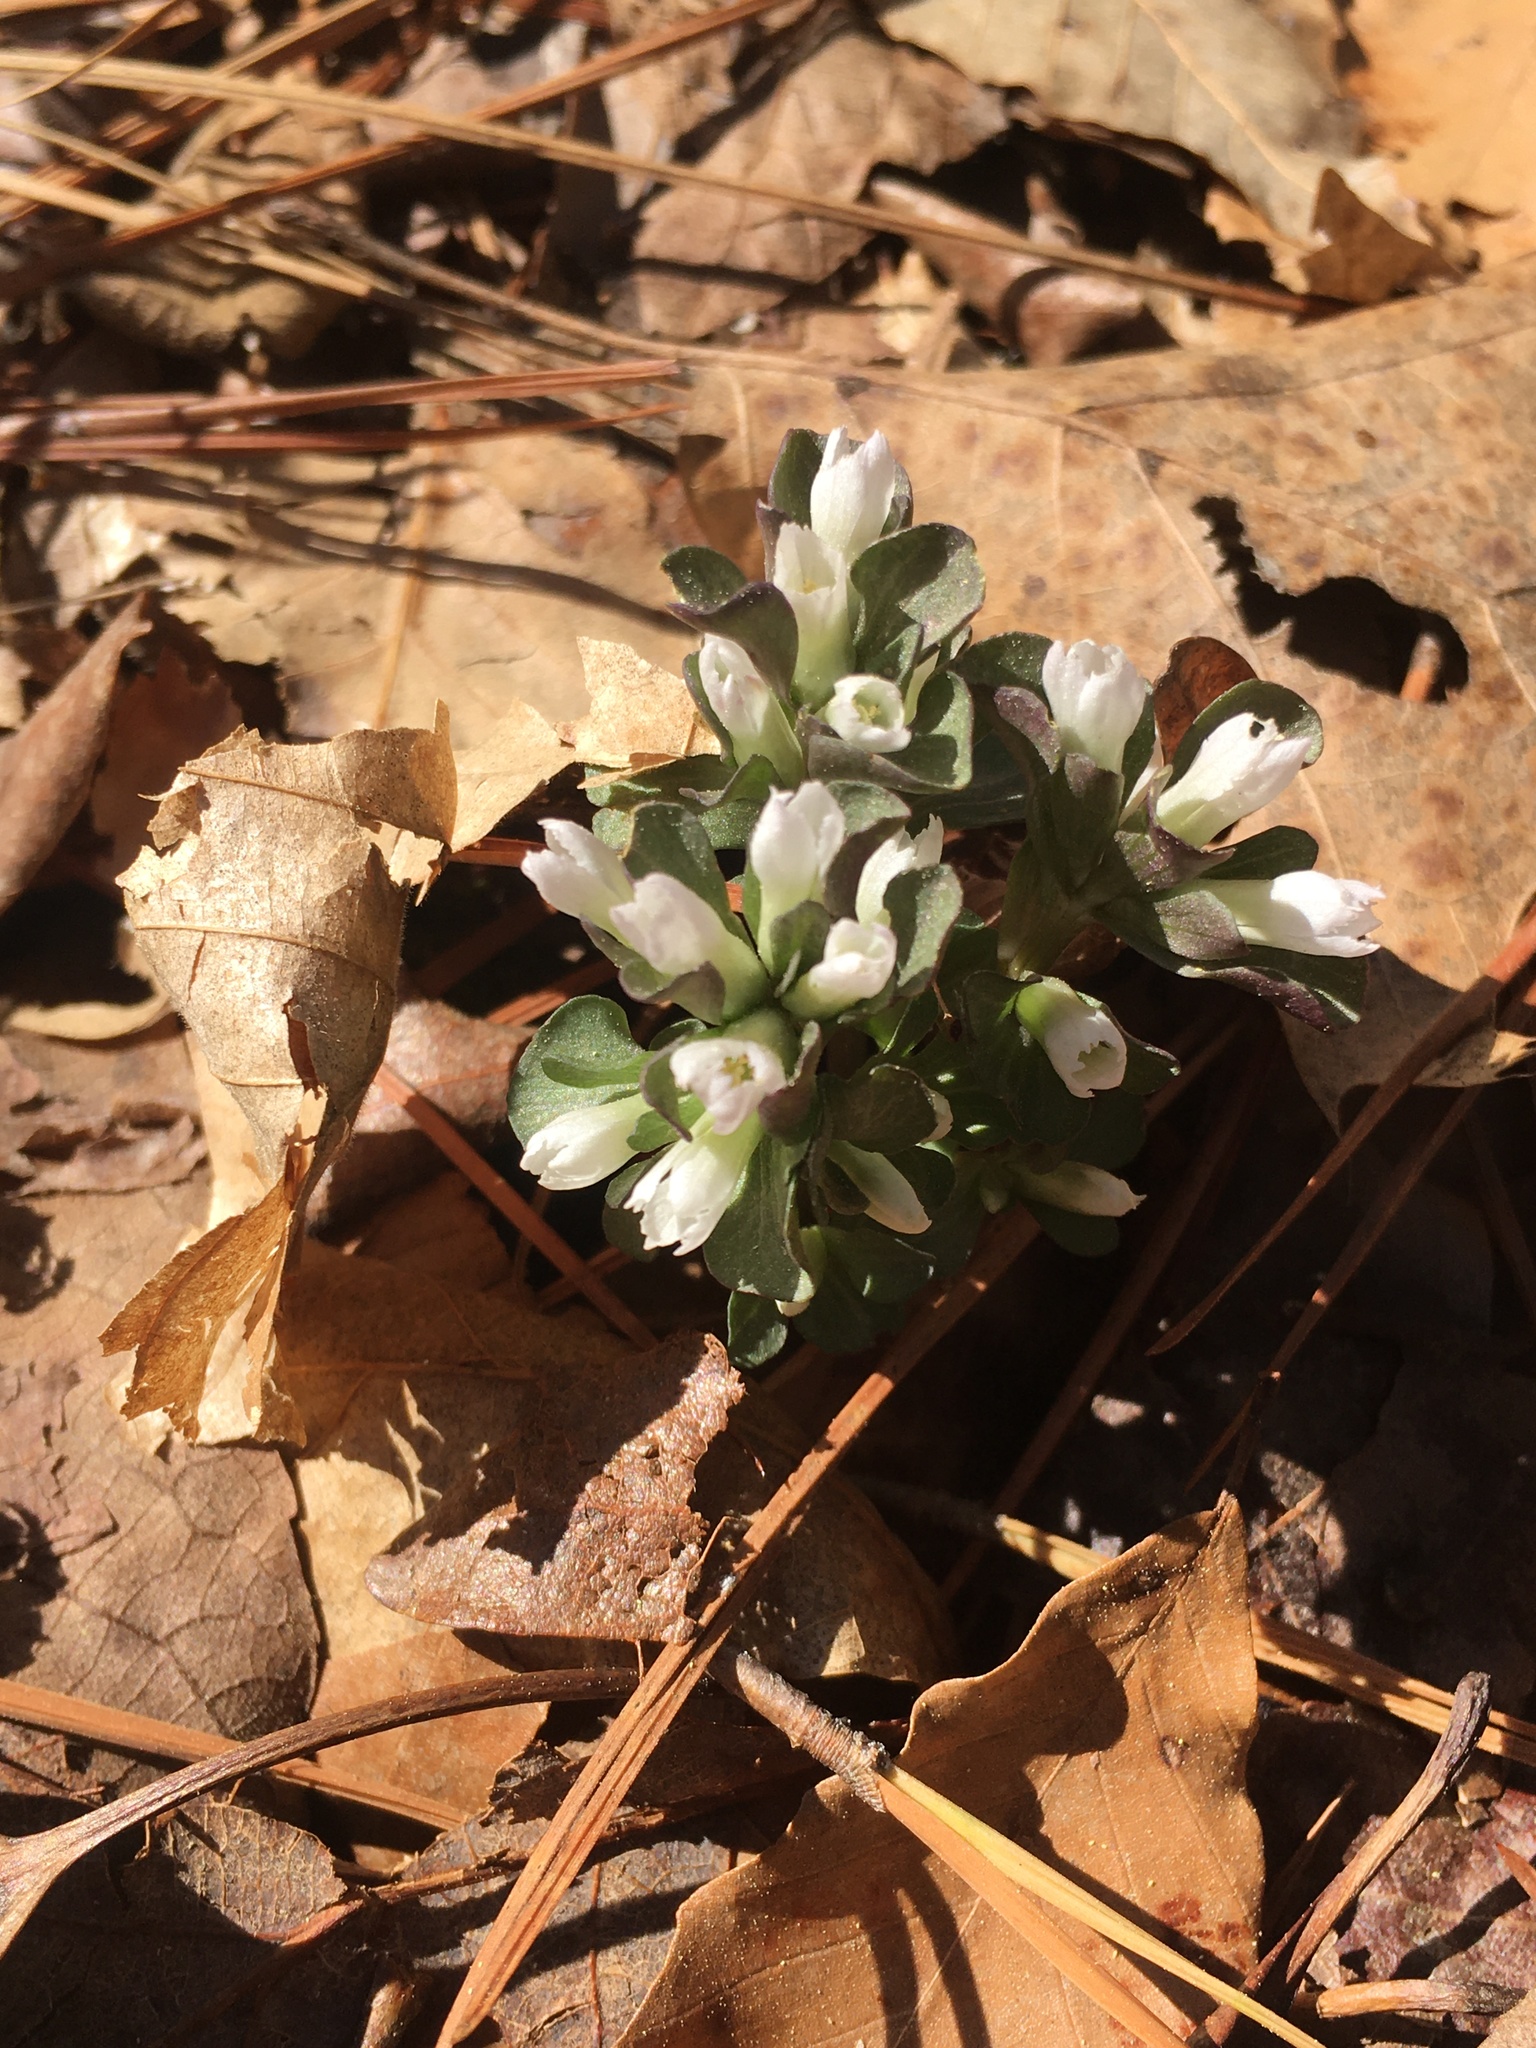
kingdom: Plantae
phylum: Tracheophyta
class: Magnoliopsida
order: Gentianales
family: Gentianaceae
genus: Obolaria
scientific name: Obolaria virginica
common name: Pennywort
